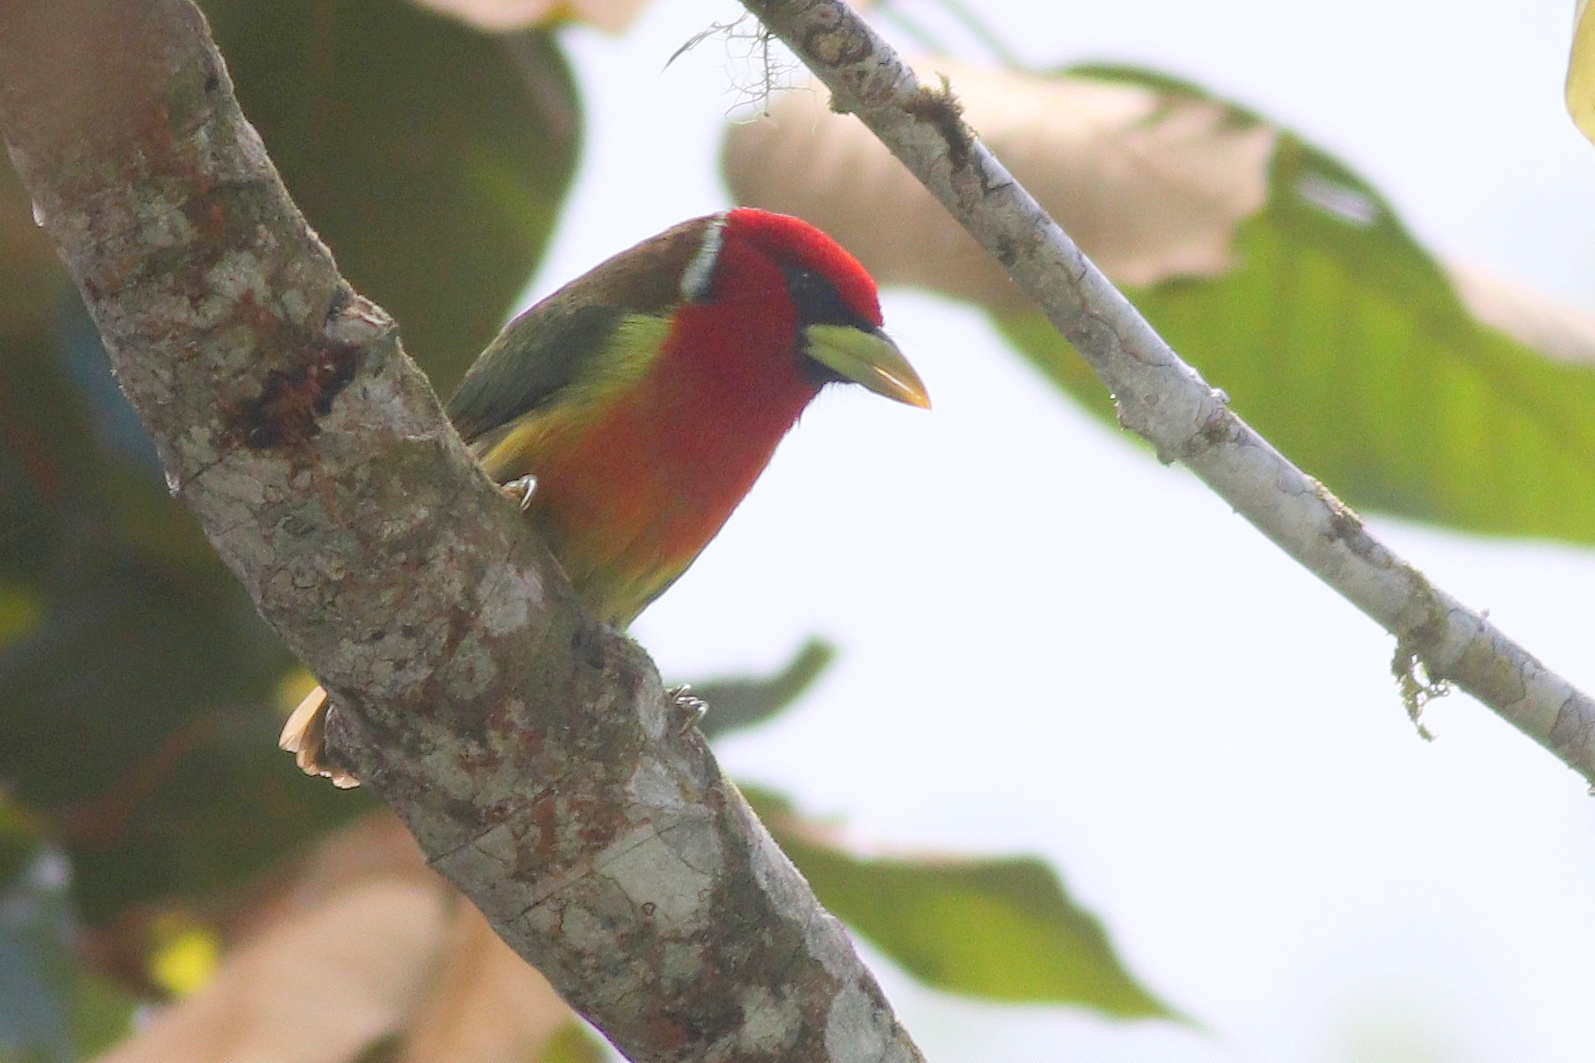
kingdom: Animalia
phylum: Chordata
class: Aves
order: Piciformes
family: Capitonidae
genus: Eubucco
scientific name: Eubucco bourcierii
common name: Red-headed barbet
